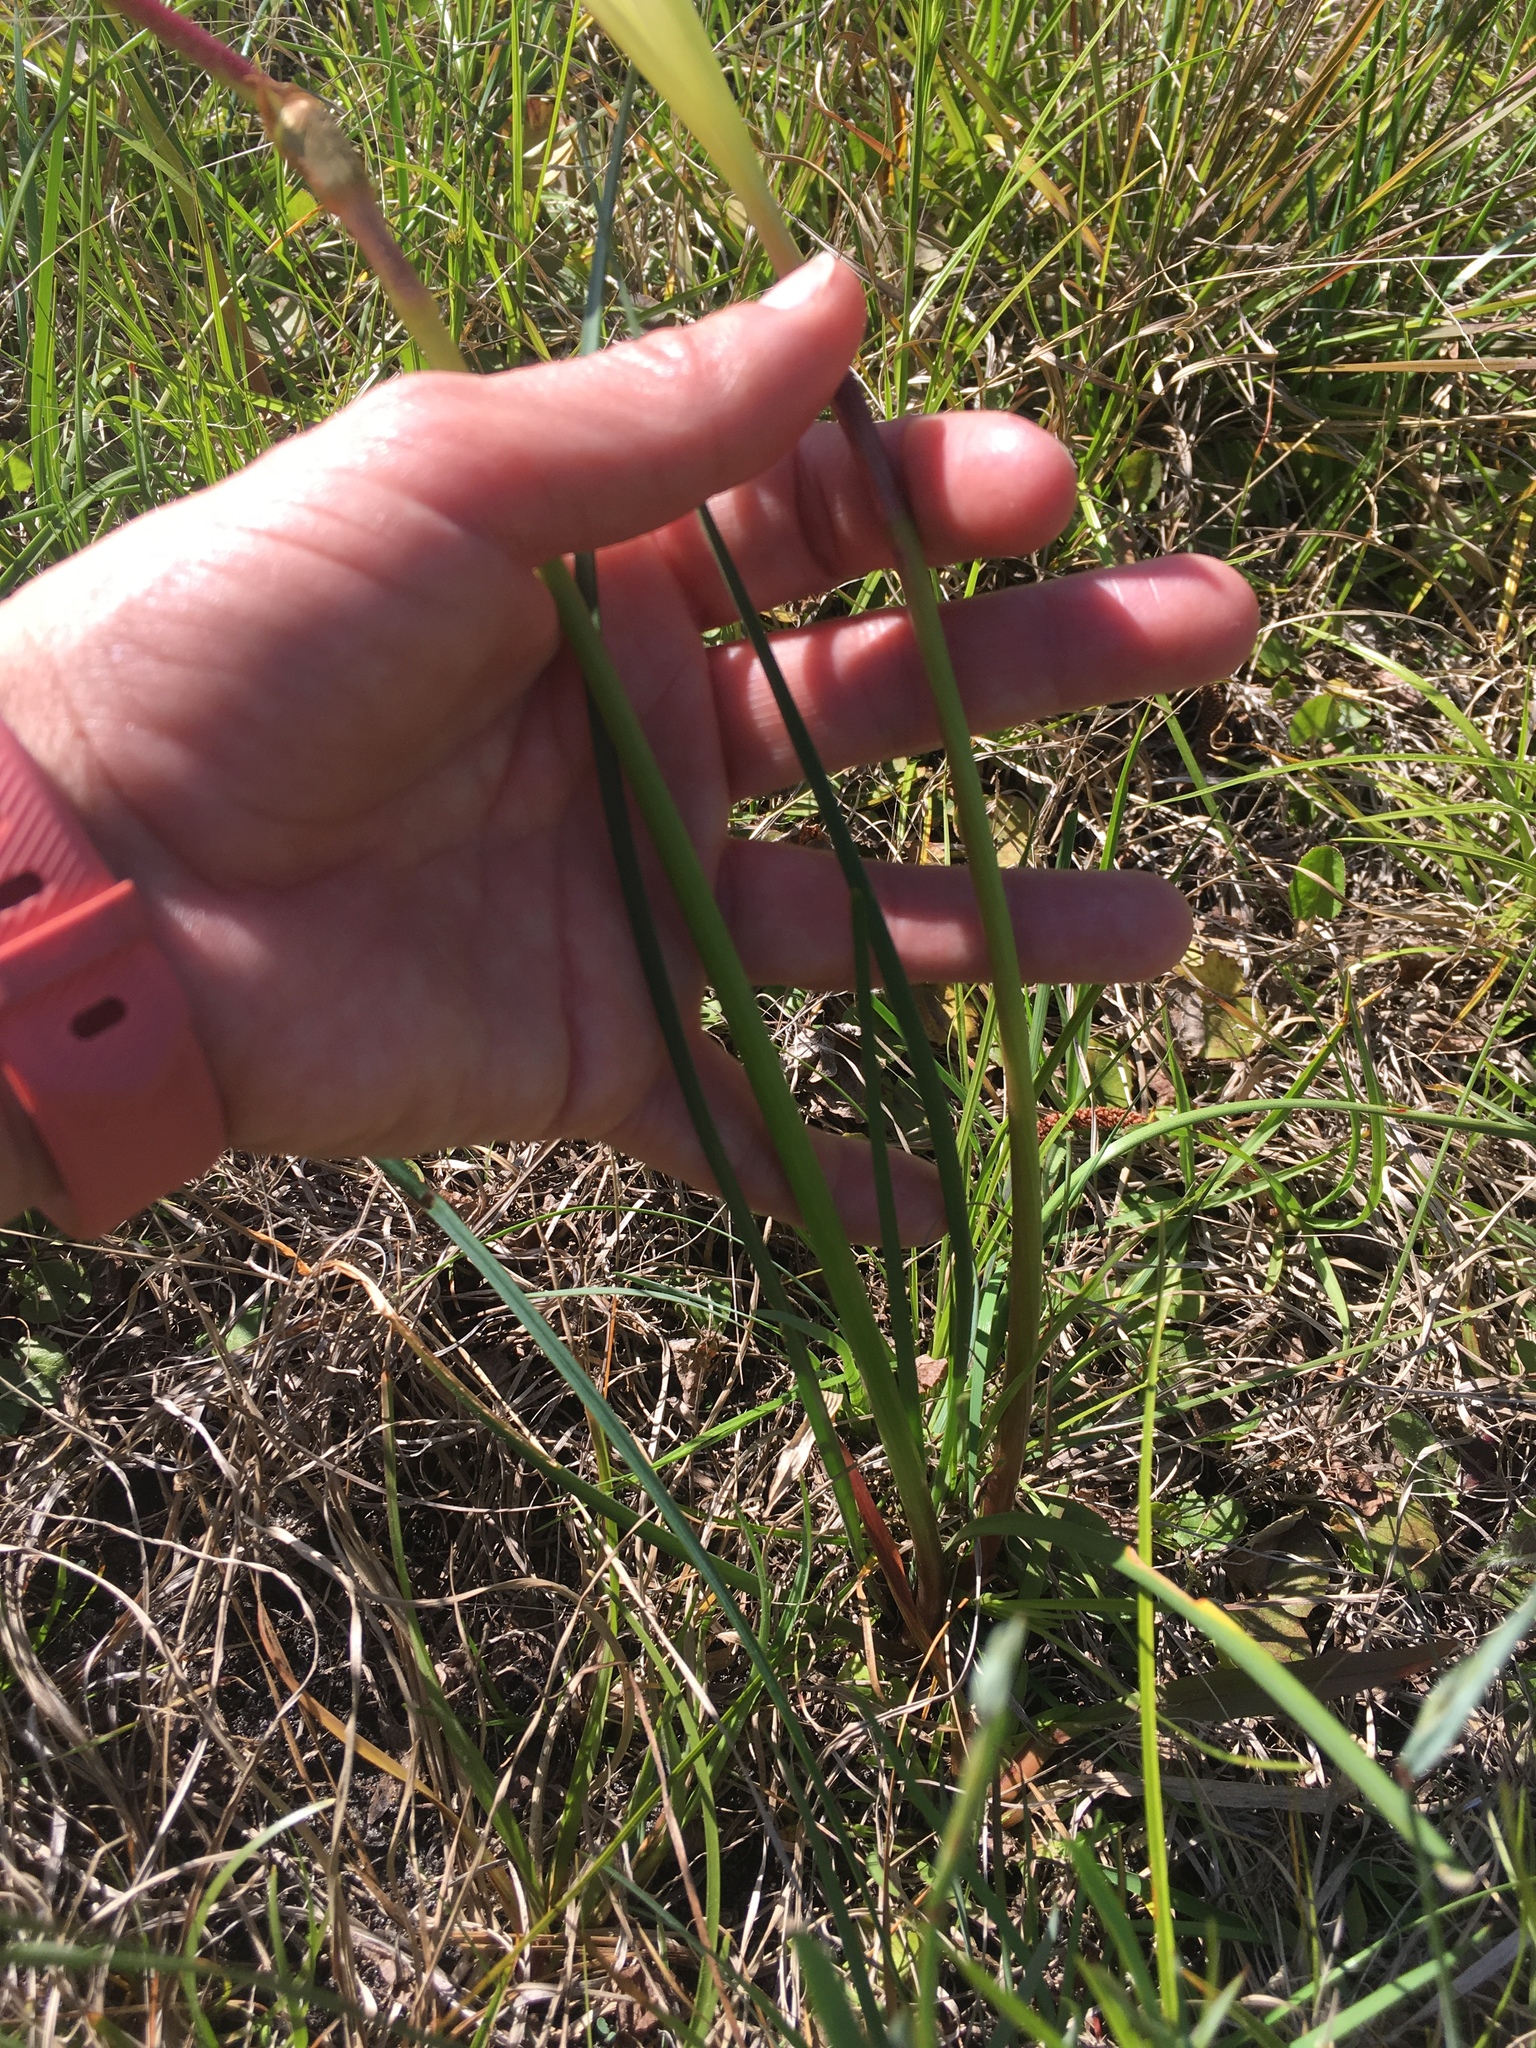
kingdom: Plantae
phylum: Tracheophyta
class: Liliopsida
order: Asparagales
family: Amaryllidaceae
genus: Zephyranthes
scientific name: Zephyranthes atamasco
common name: Atamasco lily
